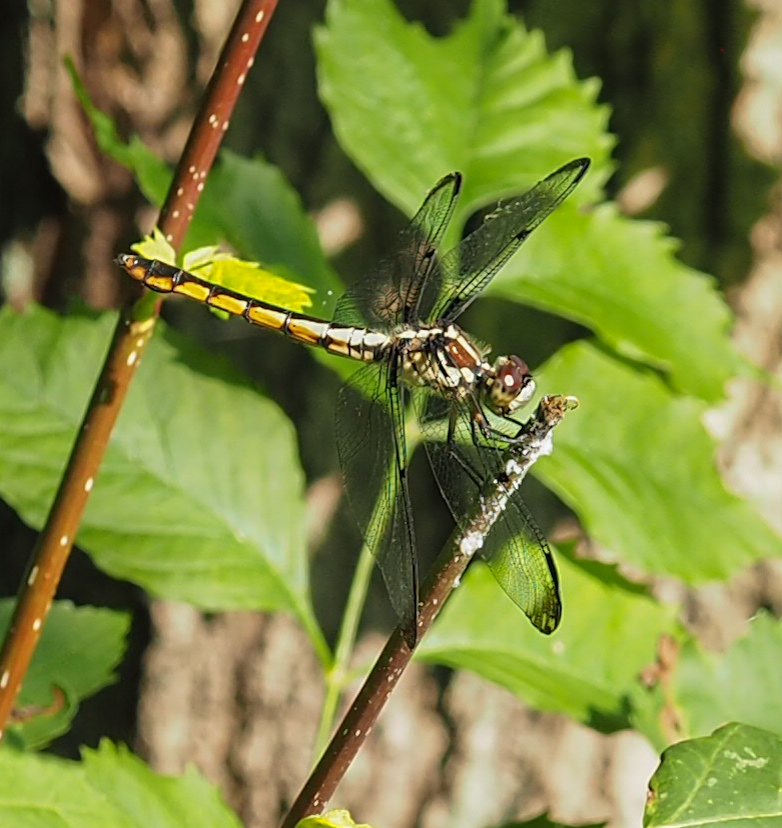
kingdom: Animalia
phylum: Arthropoda
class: Insecta
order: Odonata
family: Libellulidae
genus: Libellula
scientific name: Libellula vibrans
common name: Great blue skimmer
